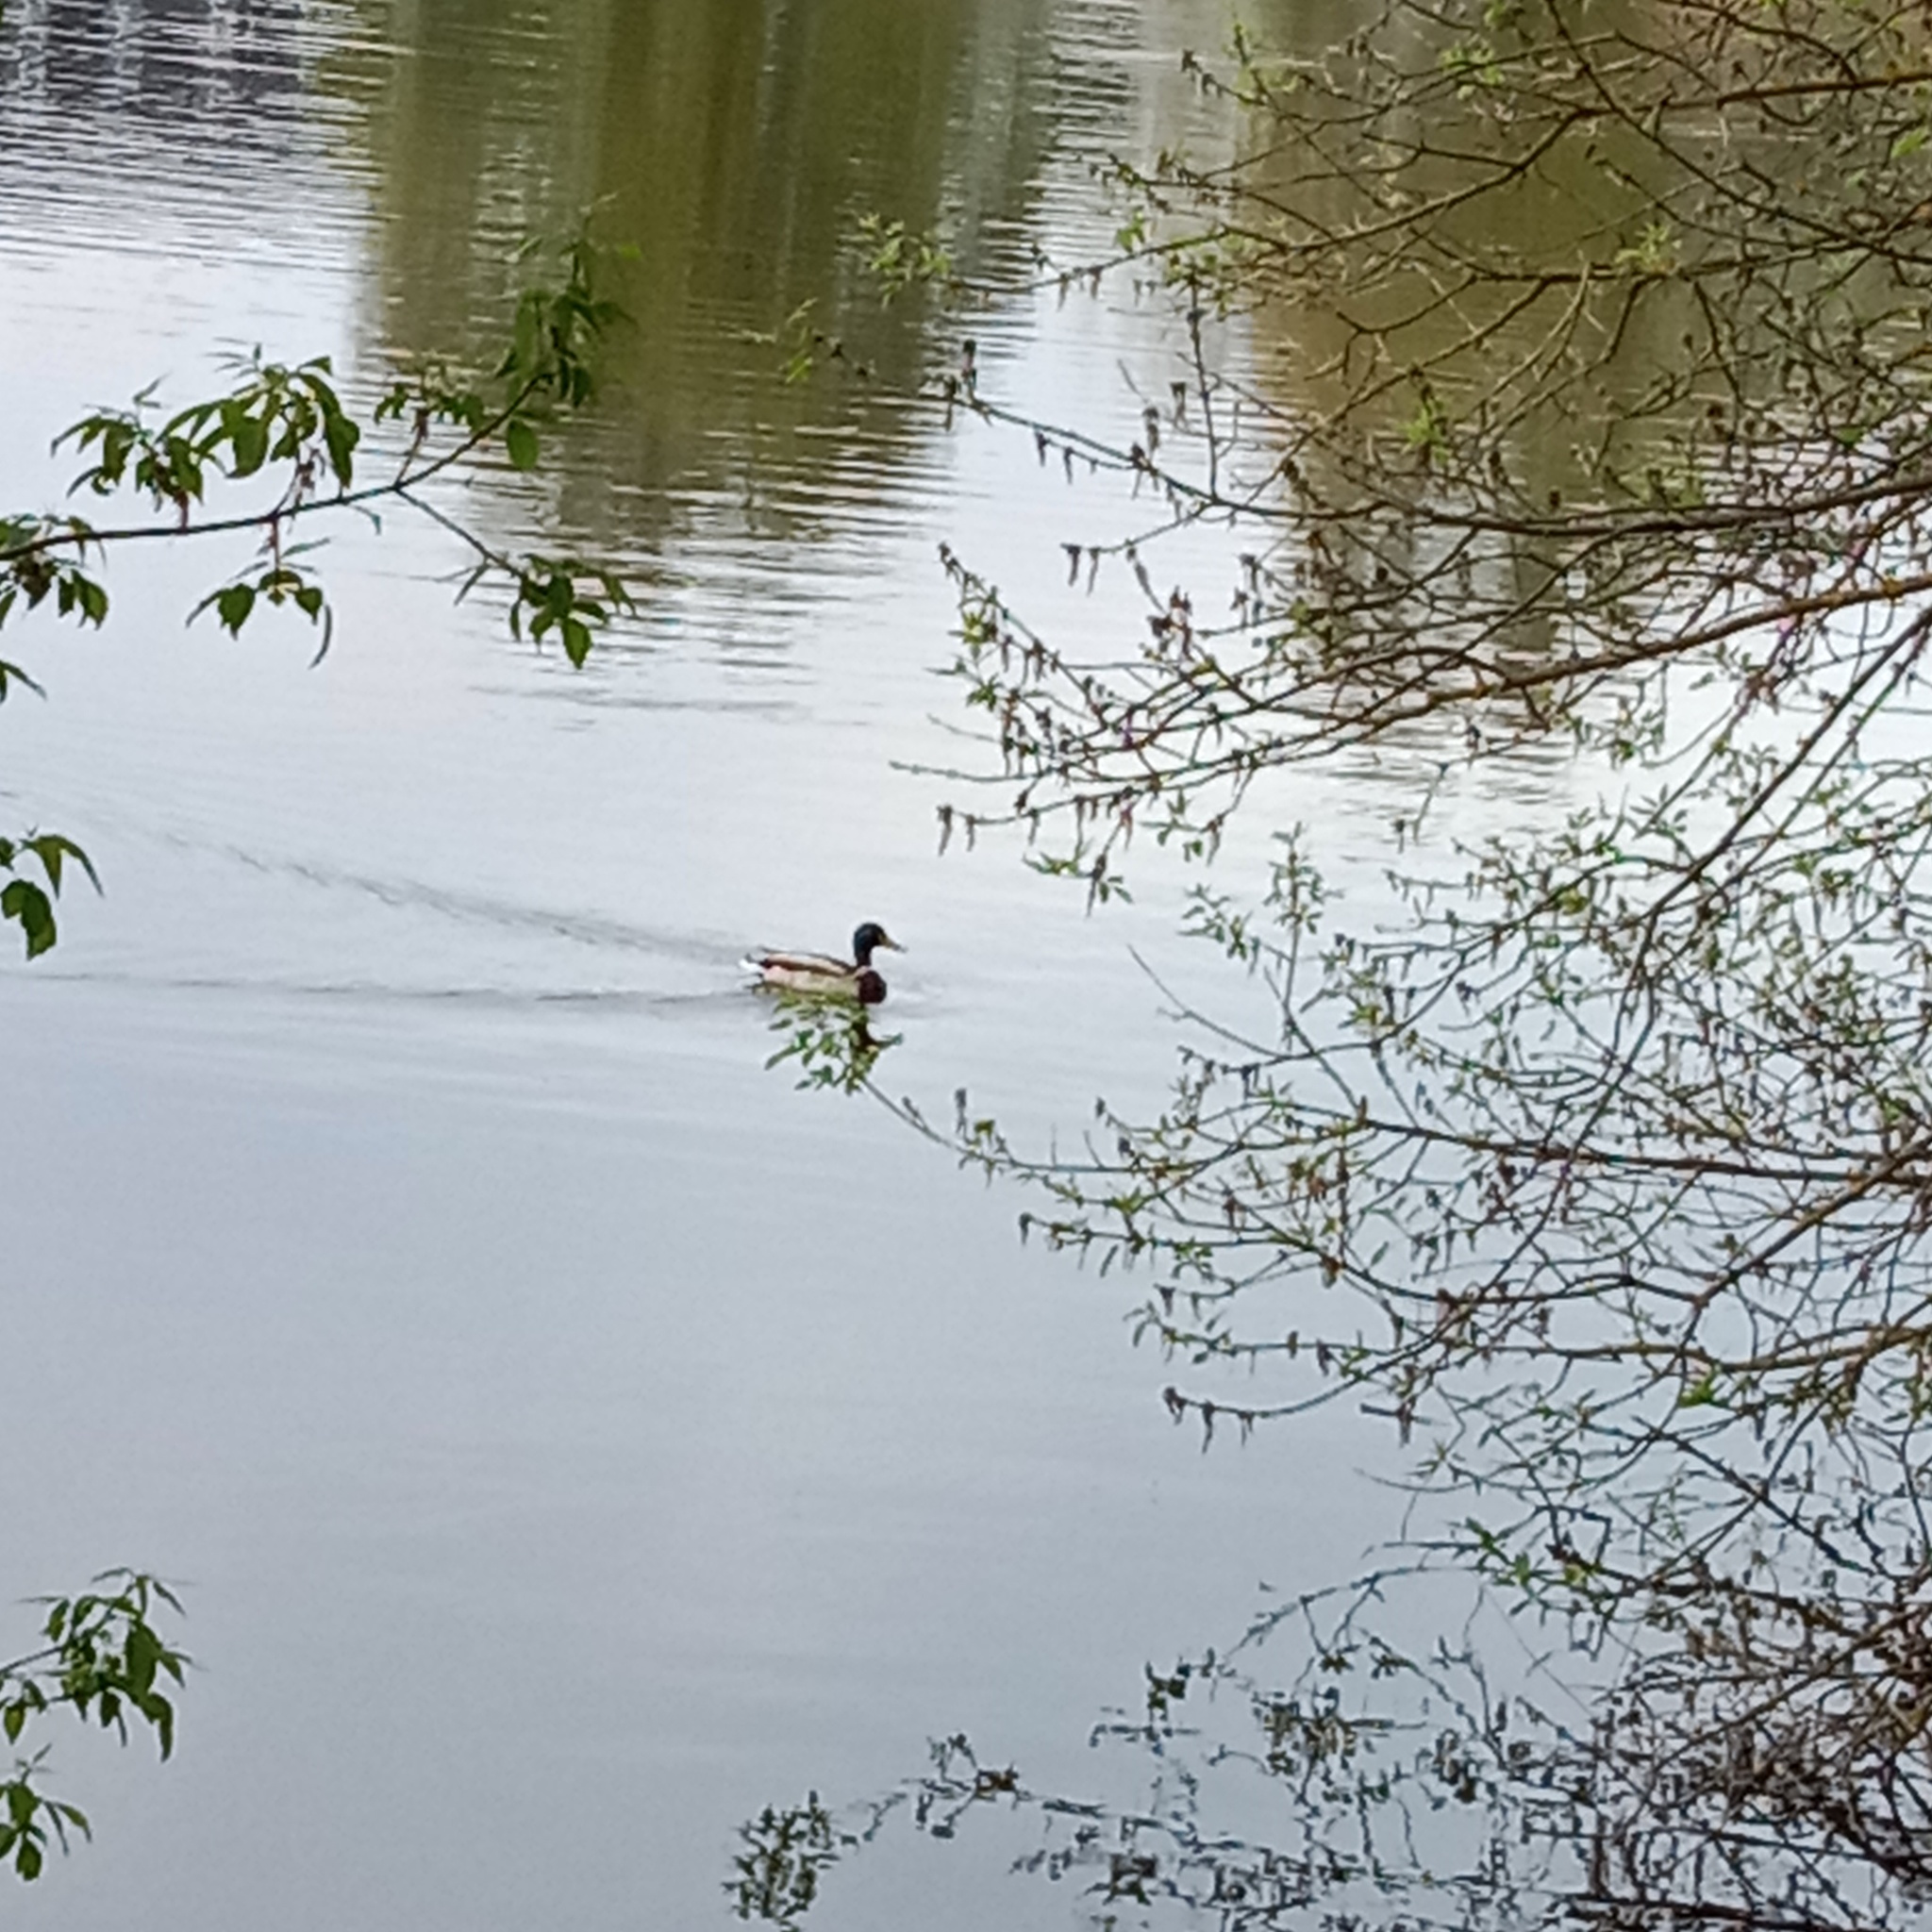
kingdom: Animalia
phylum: Chordata
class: Aves
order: Anseriformes
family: Anatidae
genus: Anas
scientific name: Anas platyrhynchos
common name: Mallard
